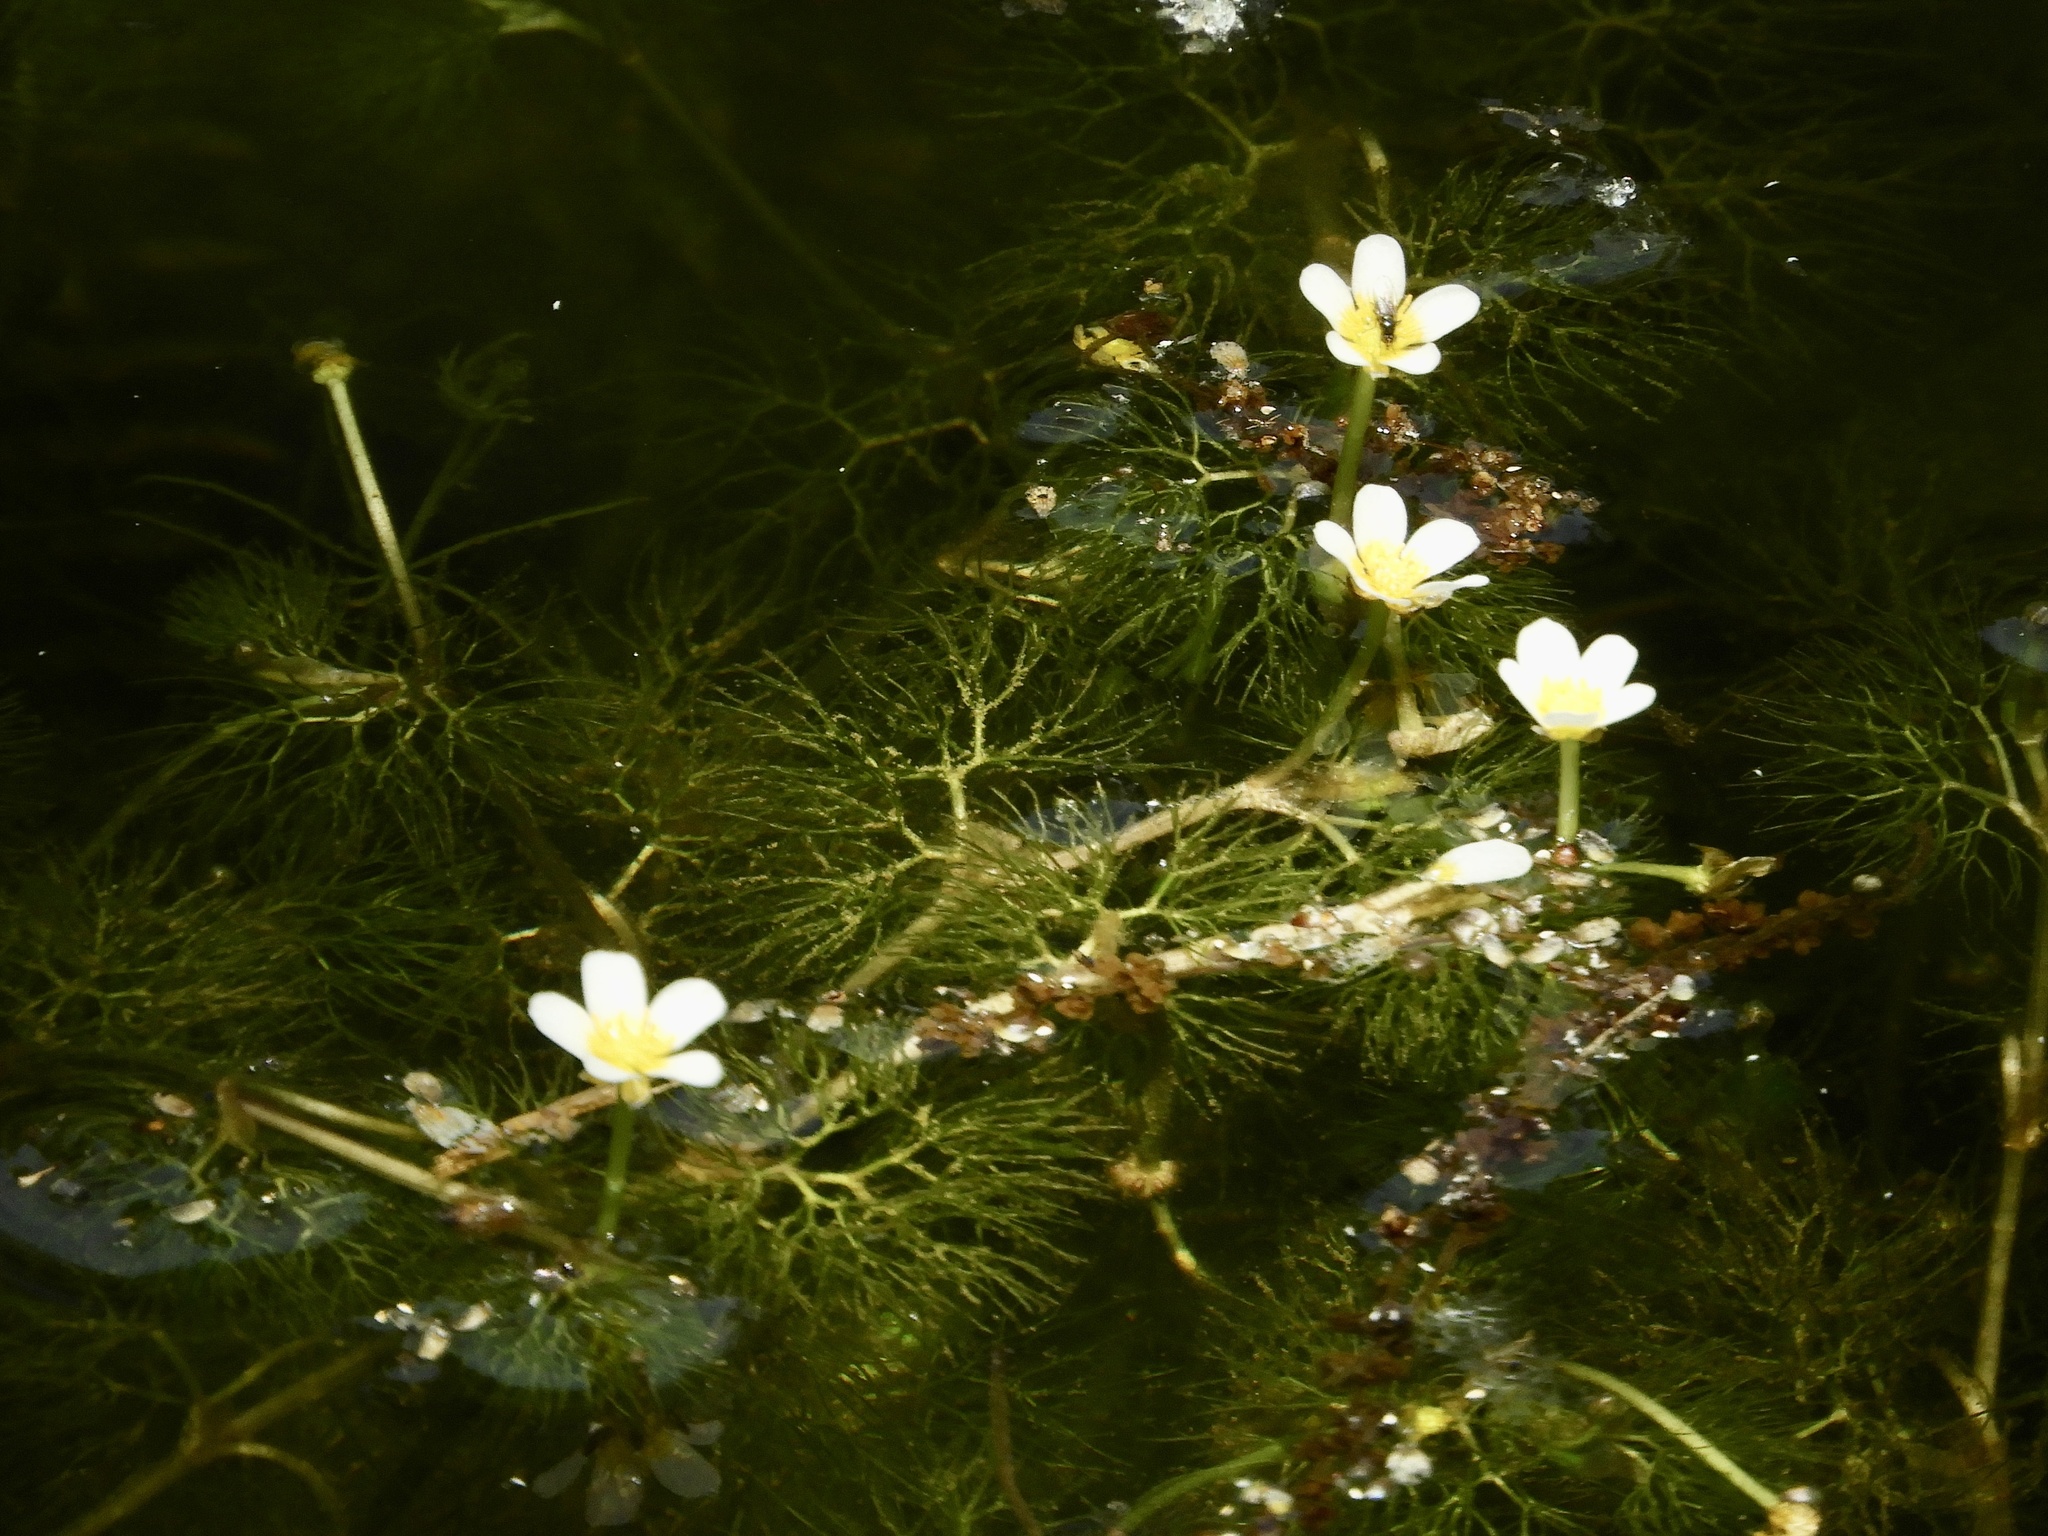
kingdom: Plantae
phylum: Tracheophyta
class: Magnoliopsida
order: Ranunculales
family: Ranunculaceae
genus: Ranunculus
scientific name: Ranunculus trichophyllus
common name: Thread-leaved water-crowfoot
